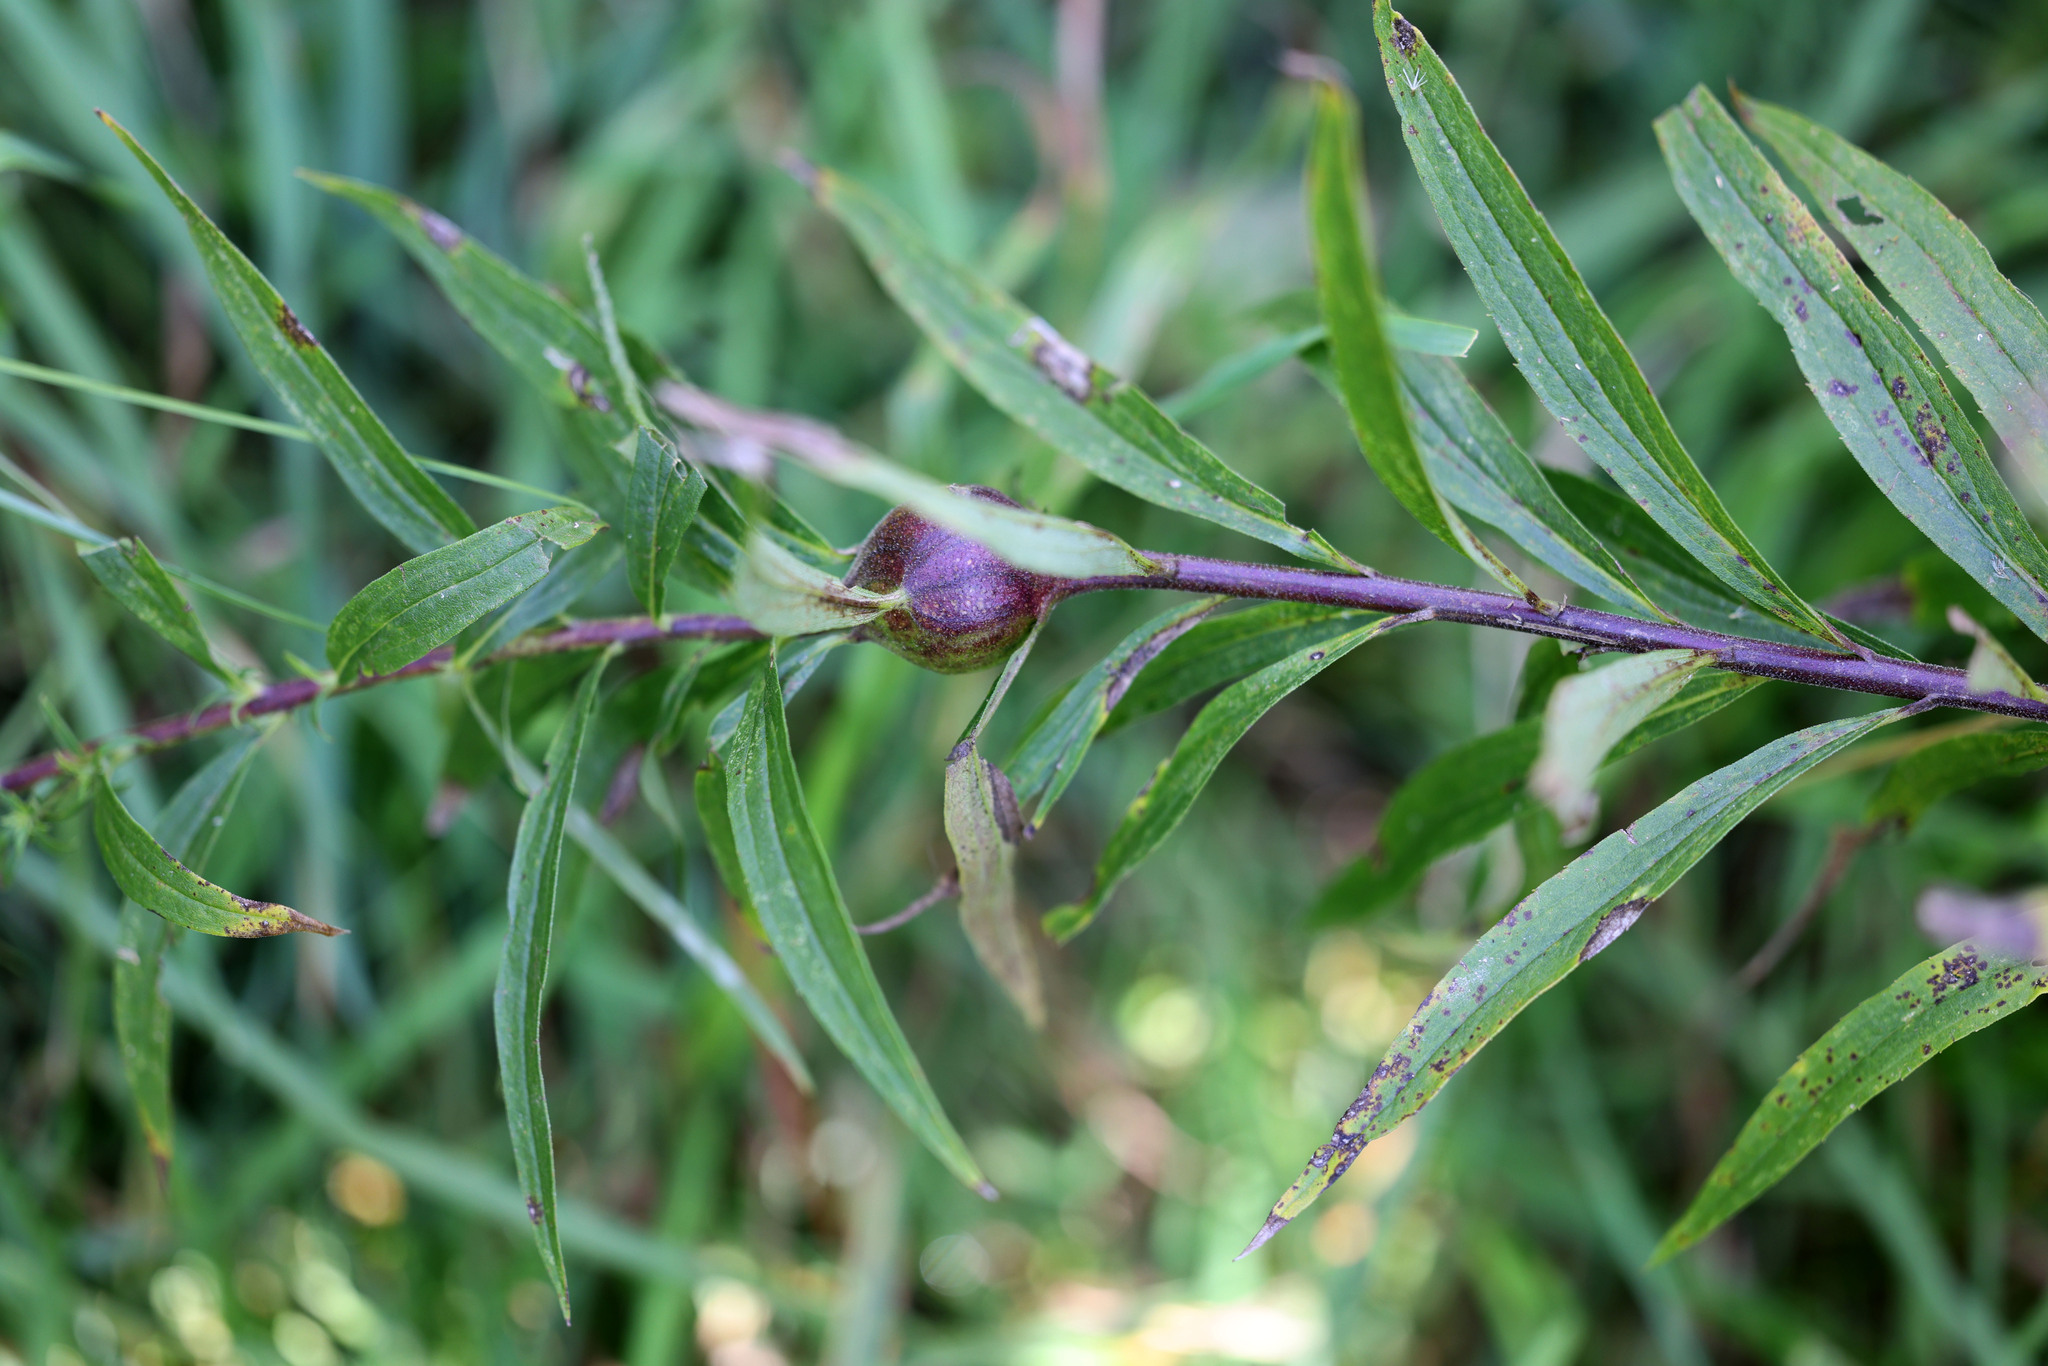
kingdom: Animalia
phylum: Arthropoda
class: Insecta
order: Diptera
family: Tephritidae
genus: Eurosta
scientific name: Eurosta solidaginis
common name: Goldenrod gall fly
